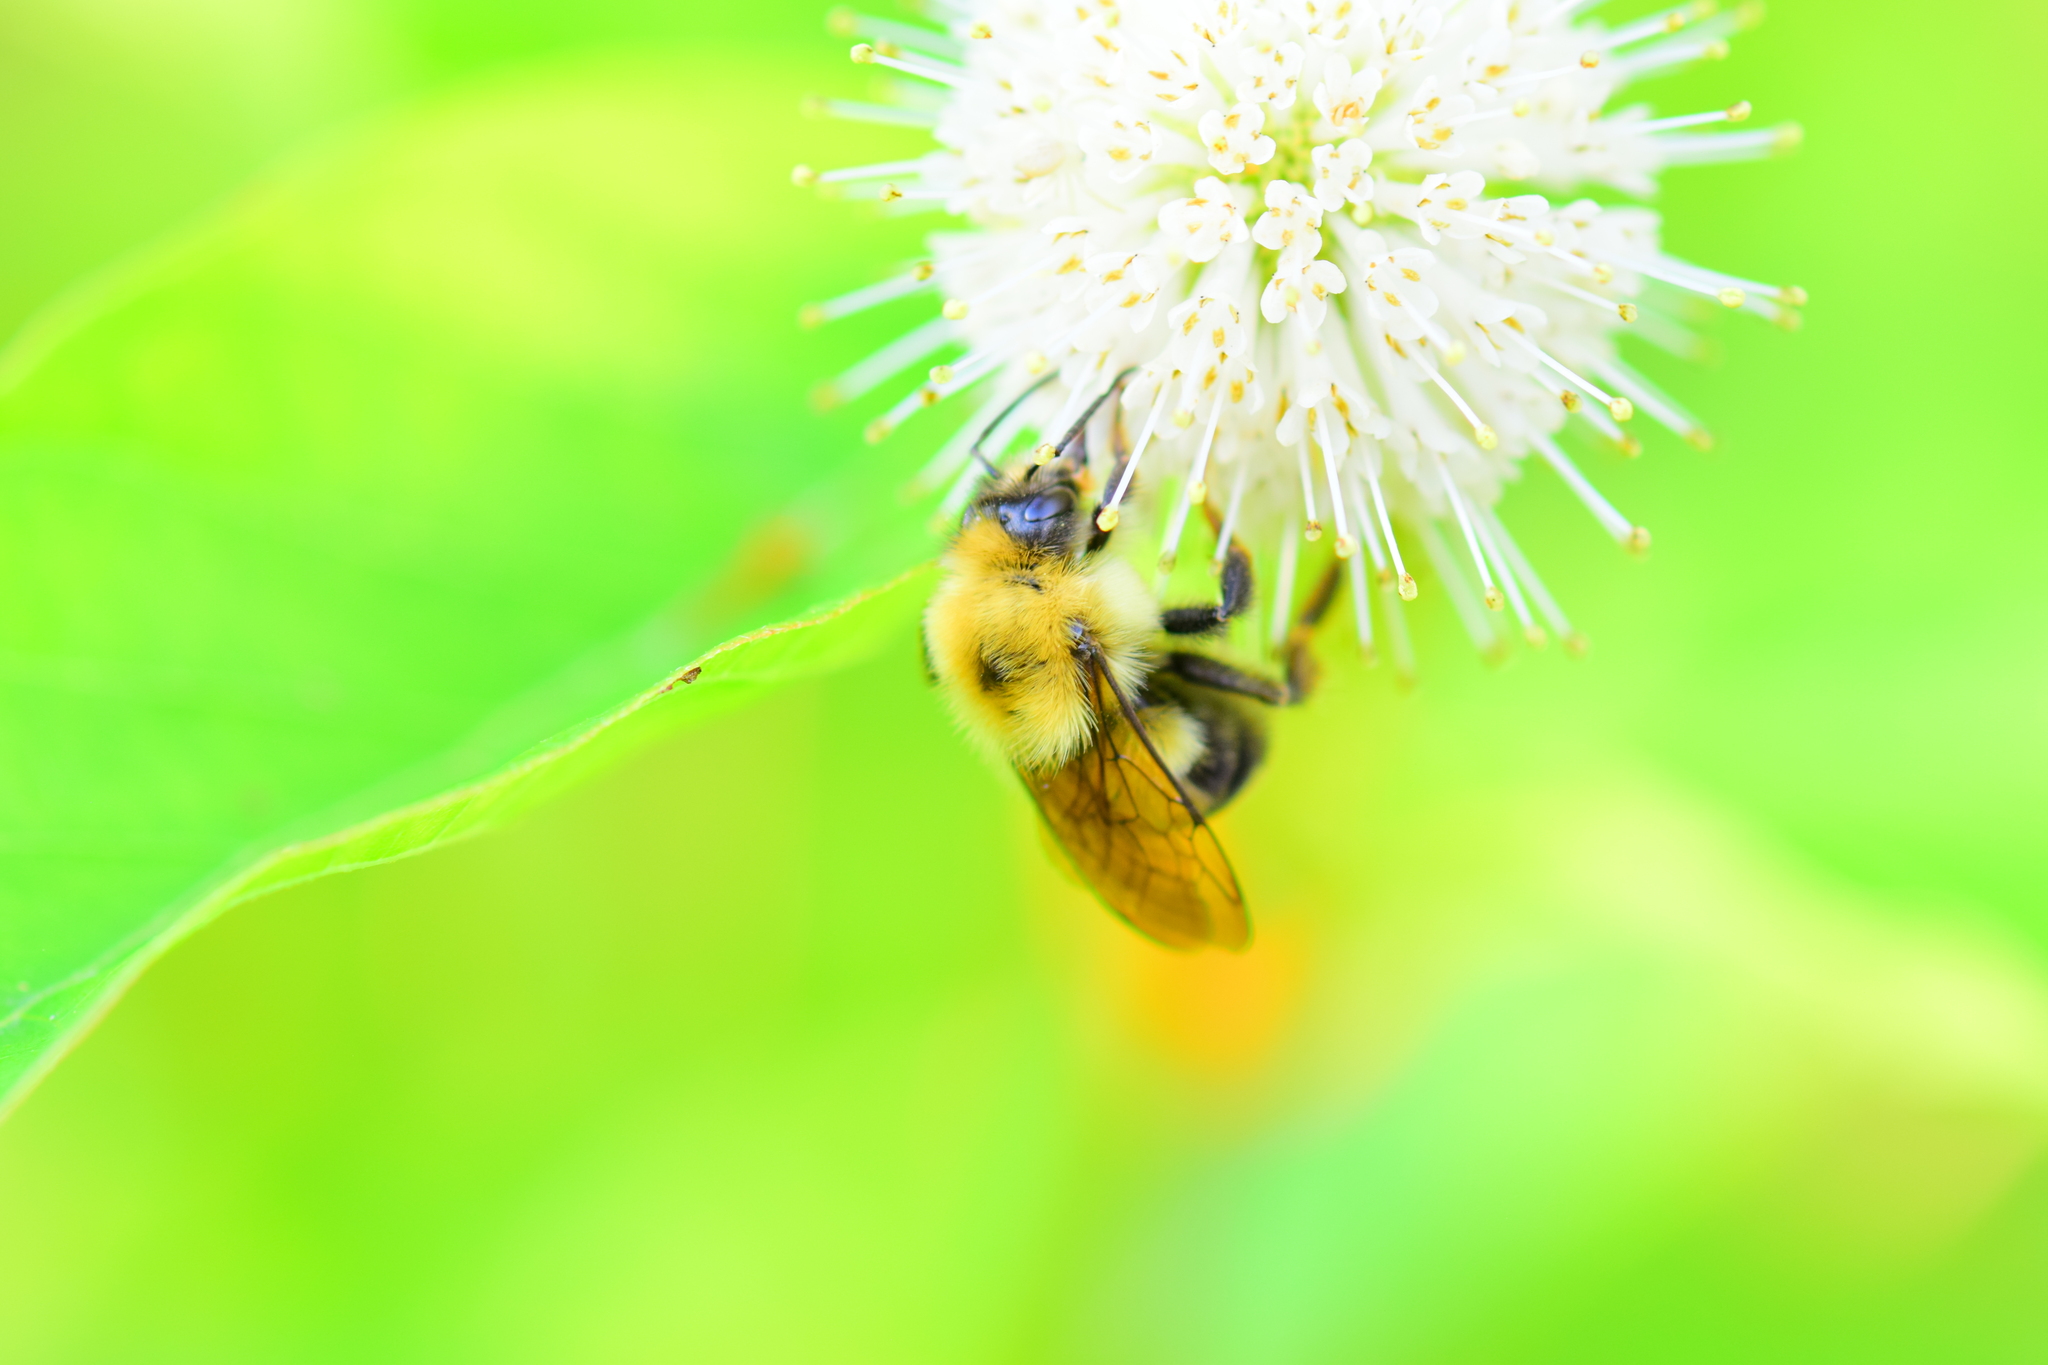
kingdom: Animalia
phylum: Arthropoda
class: Insecta
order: Hymenoptera
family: Apidae
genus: Bombus
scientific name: Bombus bimaculatus
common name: Two-spotted bumble bee
